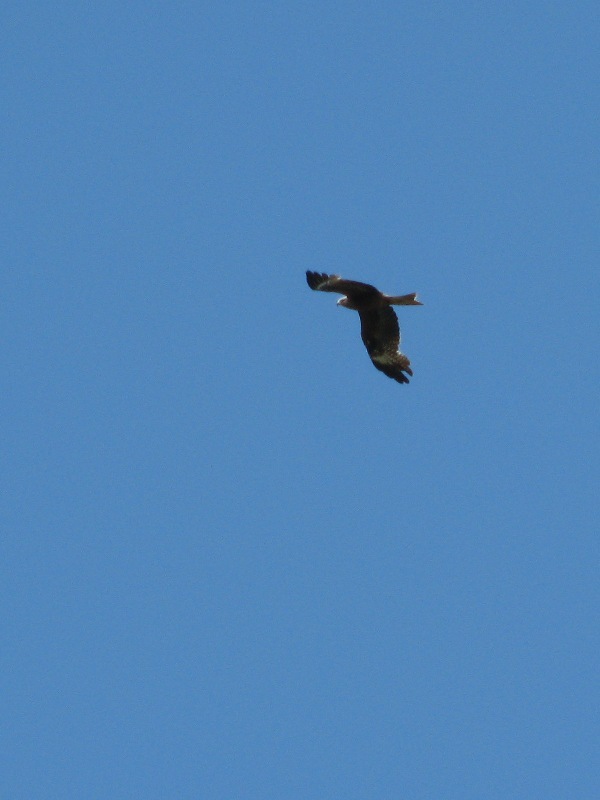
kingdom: Animalia
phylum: Chordata
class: Aves
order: Accipitriformes
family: Accipitridae
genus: Milvus
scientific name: Milvus migrans
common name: Black kite
